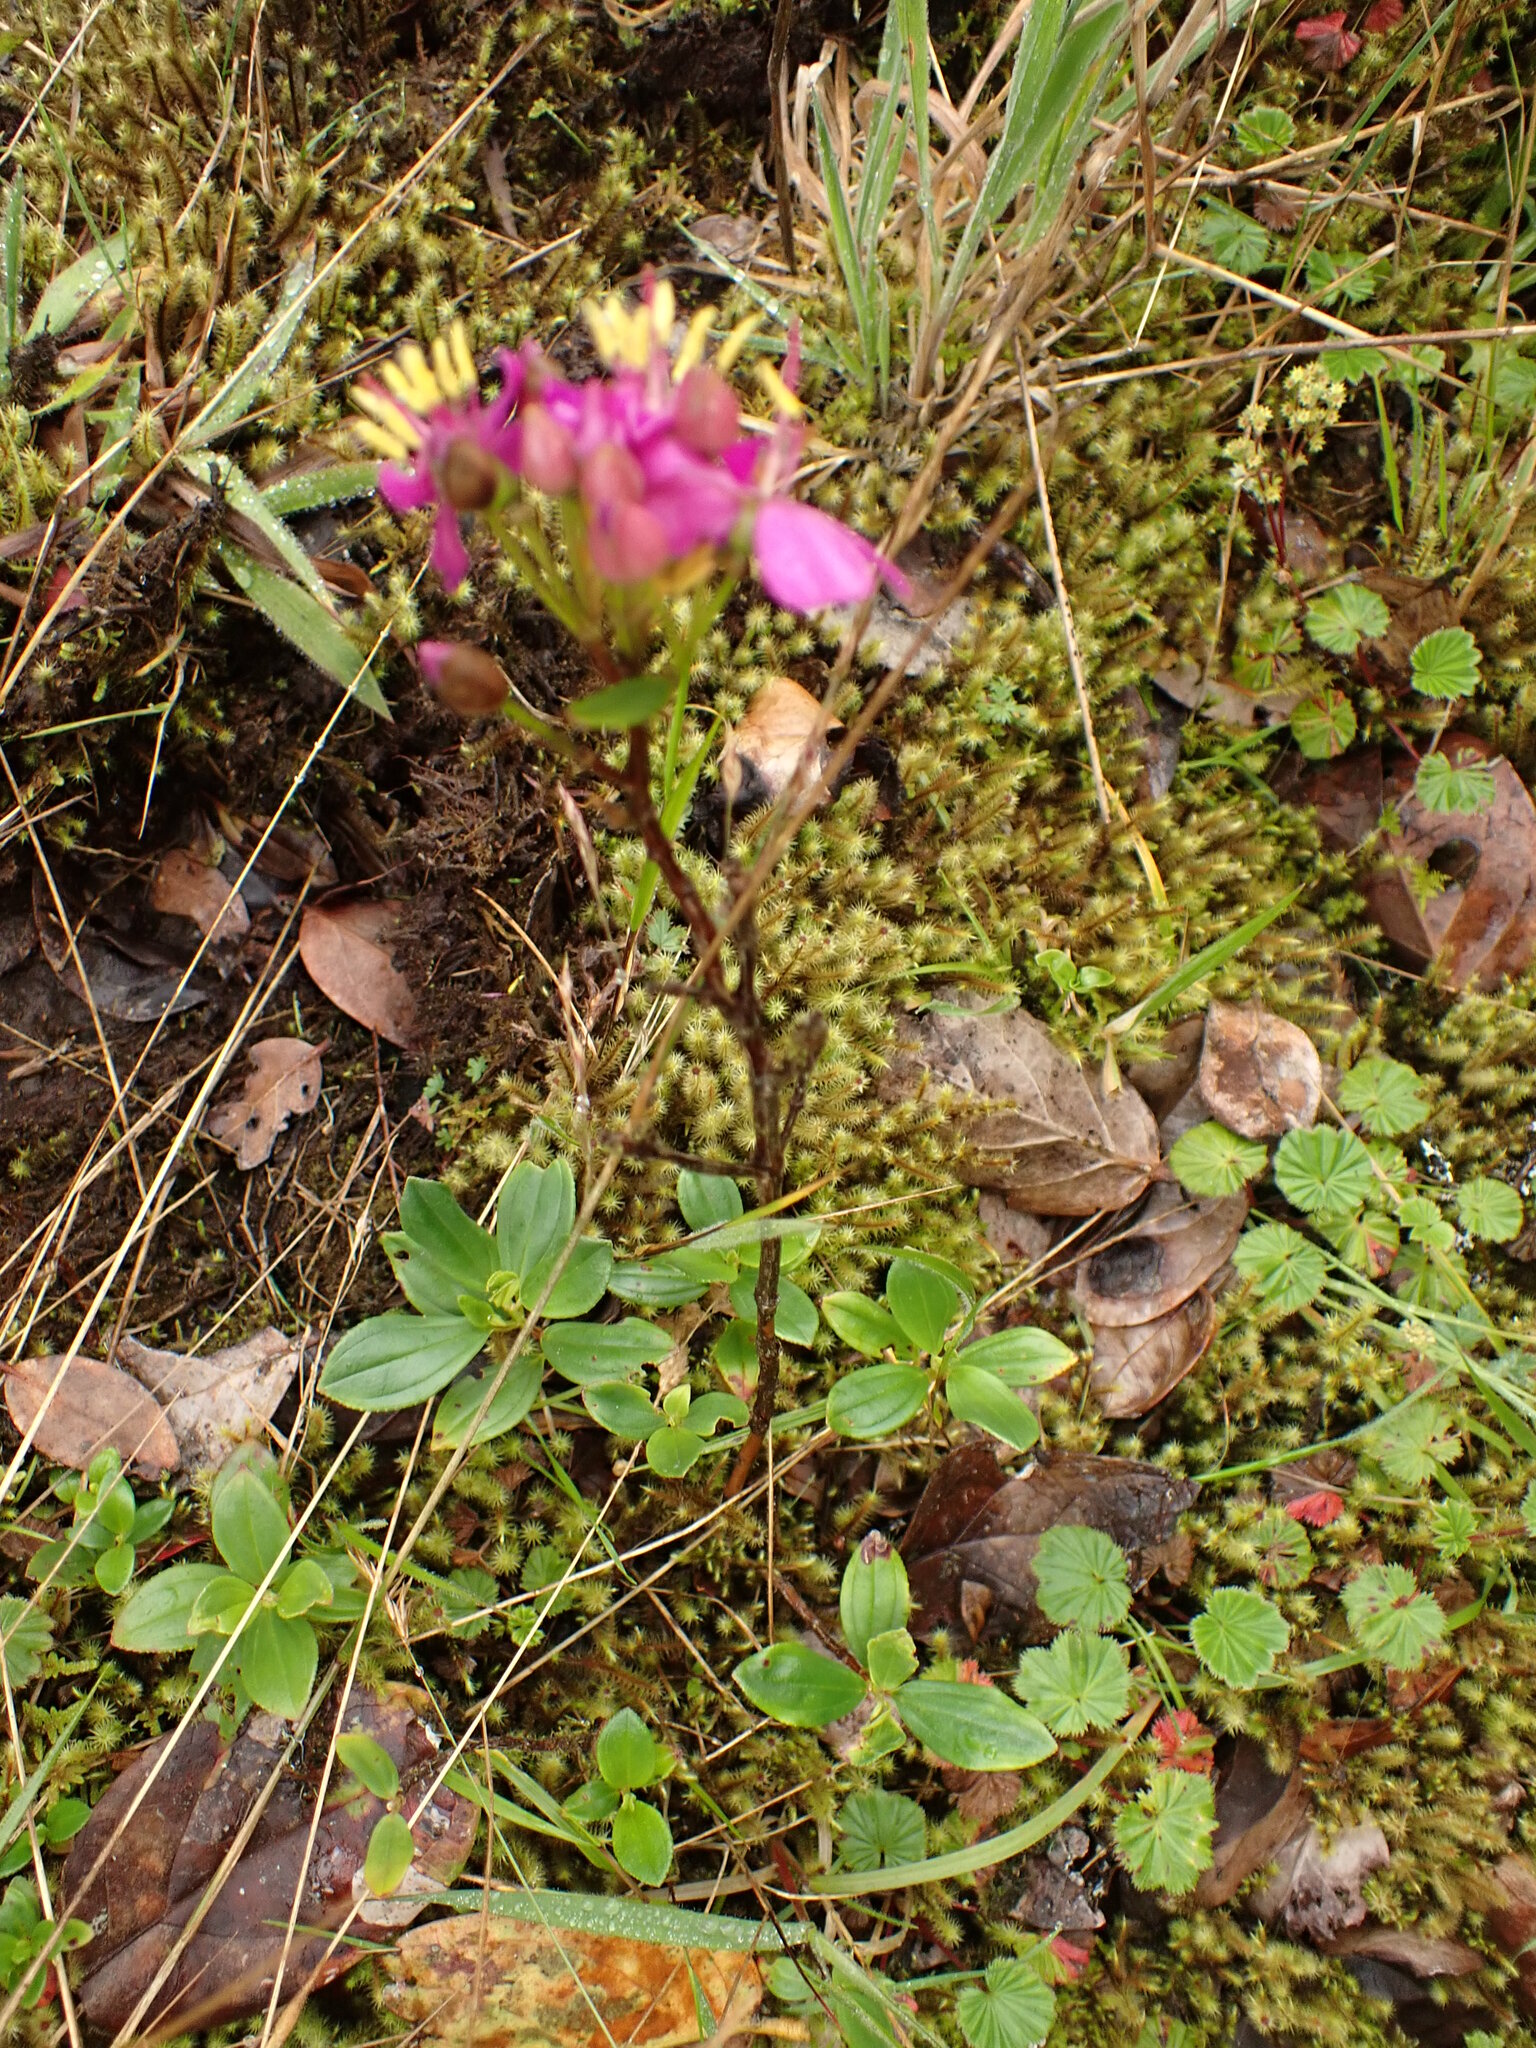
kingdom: Plantae
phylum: Tracheophyta
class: Magnoliopsida
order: Myrtales
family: Melastomataceae
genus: Bucquetia
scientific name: Bucquetia glutinosa
